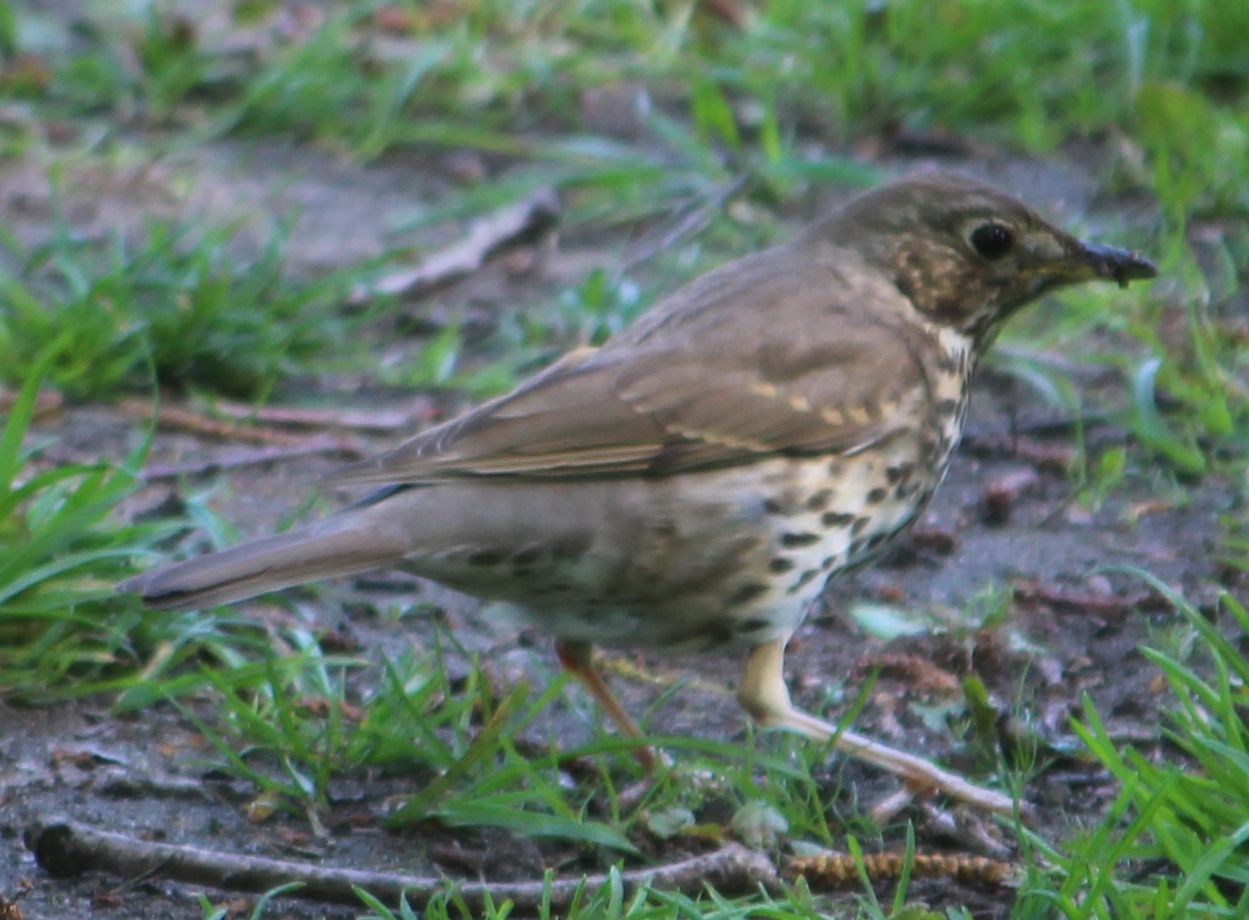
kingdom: Animalia
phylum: Chordata
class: Aves
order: Passeriformes
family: Turdidae
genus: Turdus
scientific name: Turdus philomelos
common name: Song thrush
